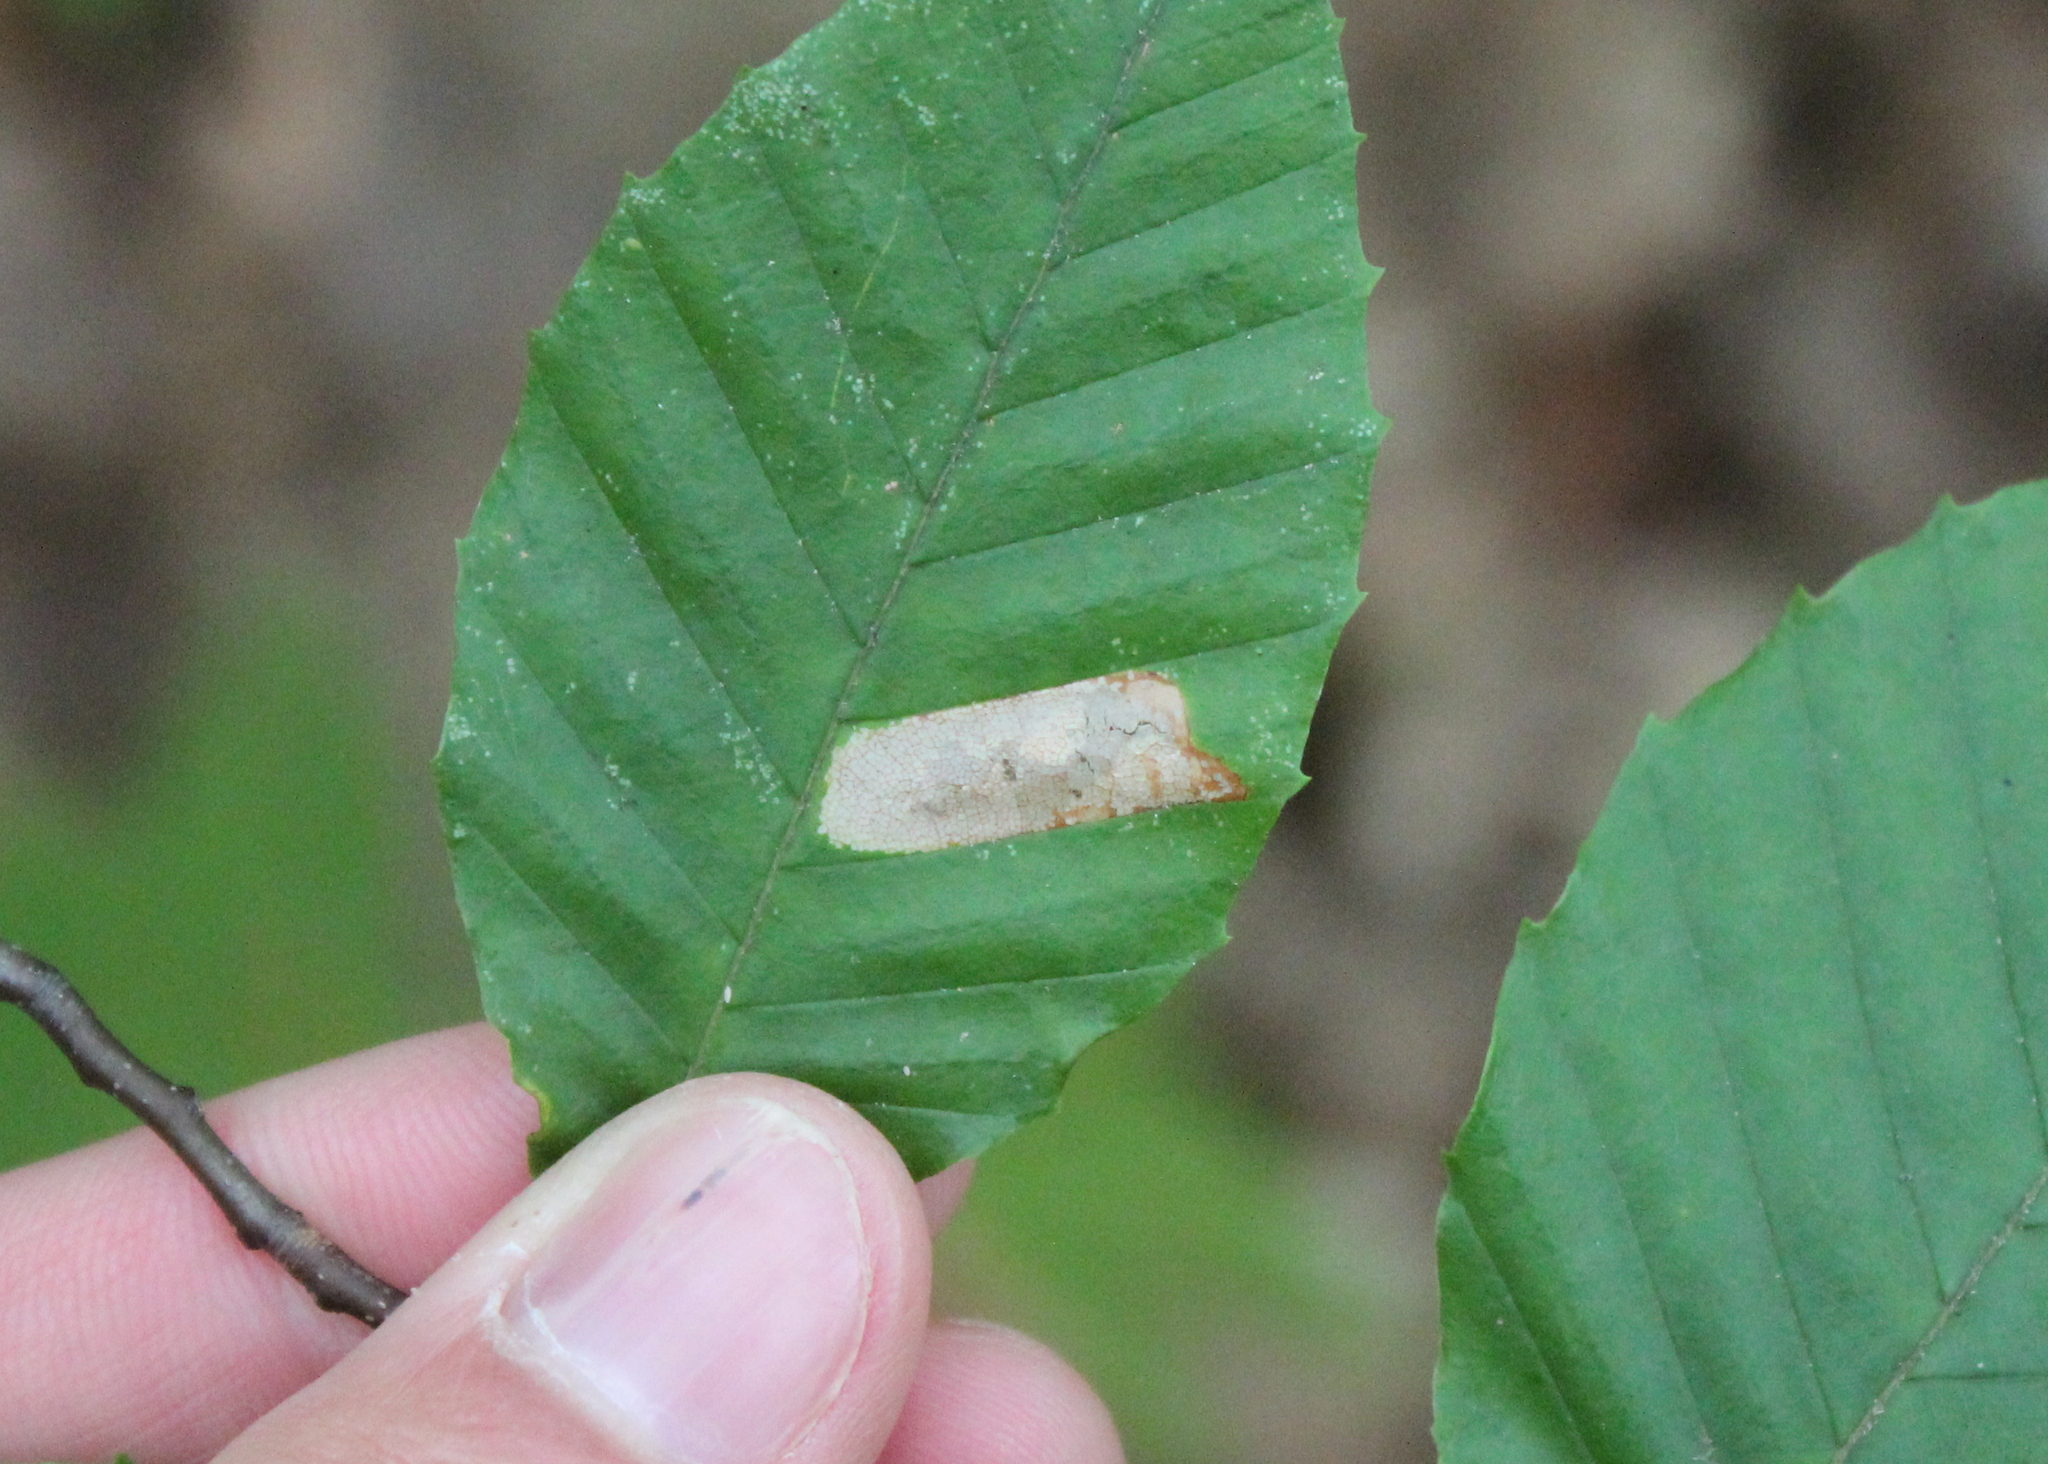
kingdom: Animalia
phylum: Arthropoda
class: Insecta
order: Lepidoptera
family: Gracillariidae
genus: Phyllonorycter
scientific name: Phyllonorycter maestingella
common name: Beech midget
